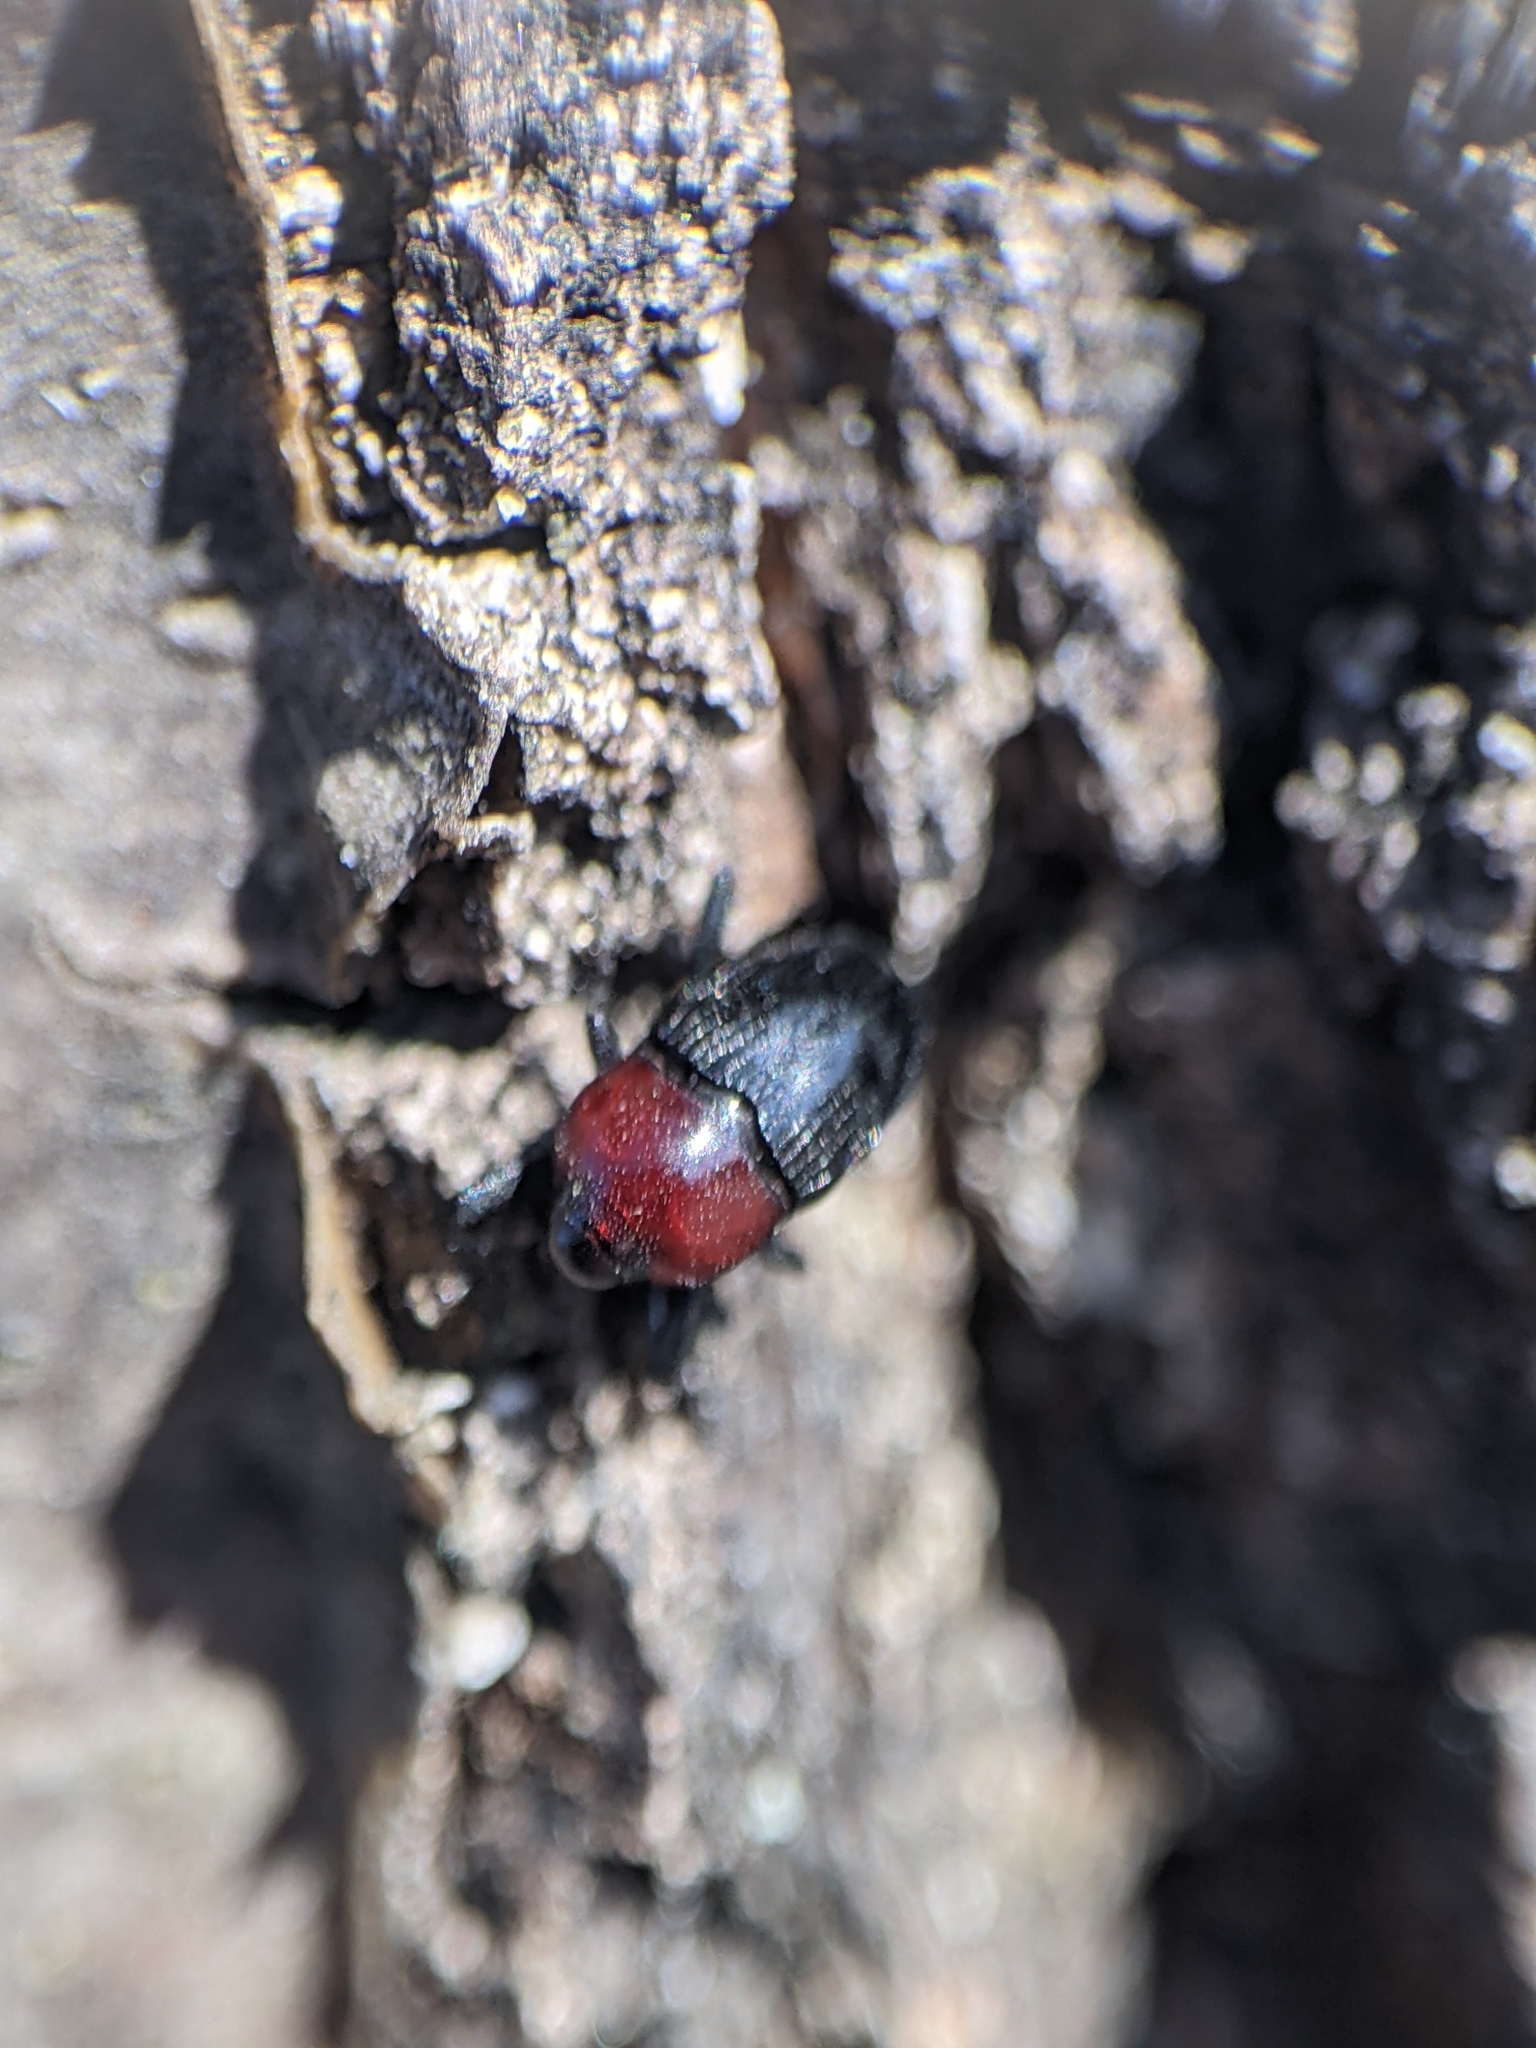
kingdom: Animalia
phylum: Arthropoda
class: Insecta
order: Coleoptera
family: Curculionidae
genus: Madarellus
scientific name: Madarellus undulatus
